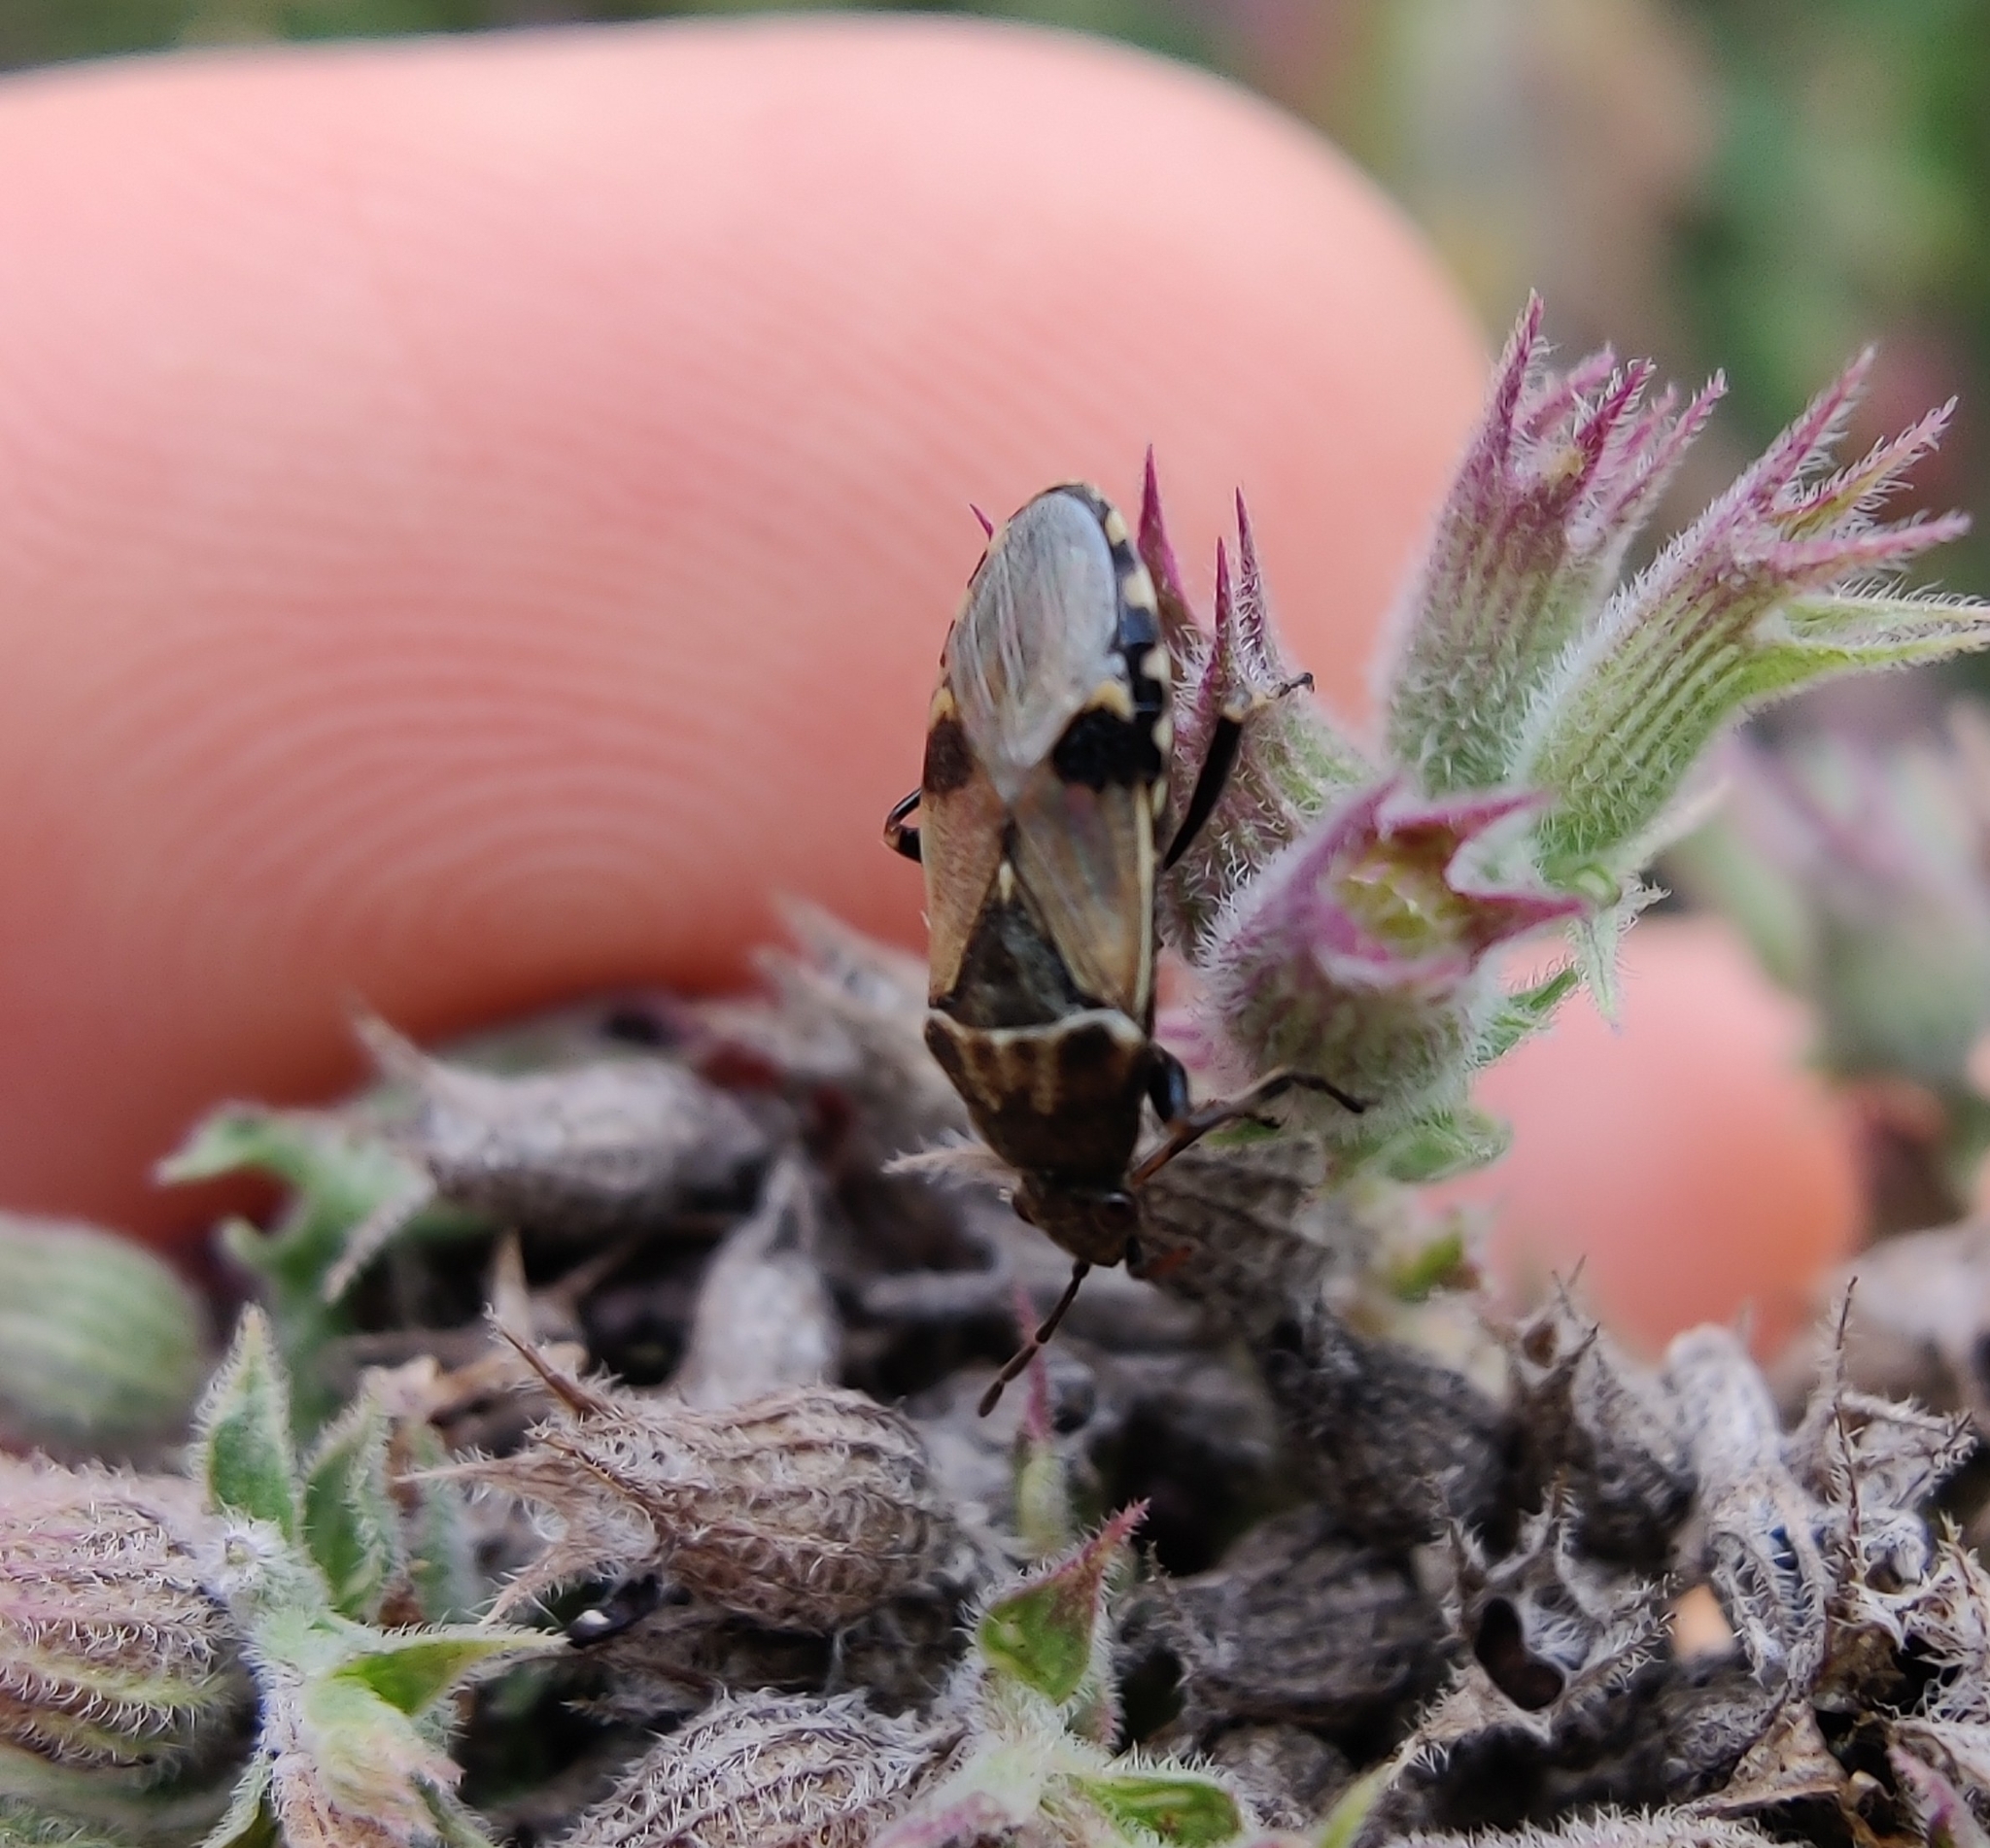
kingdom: Animalia
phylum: Arthropoda
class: Insecta
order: Hemiptera
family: Heterogastridae
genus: Heterogaster
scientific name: Heterogaster cathariae
